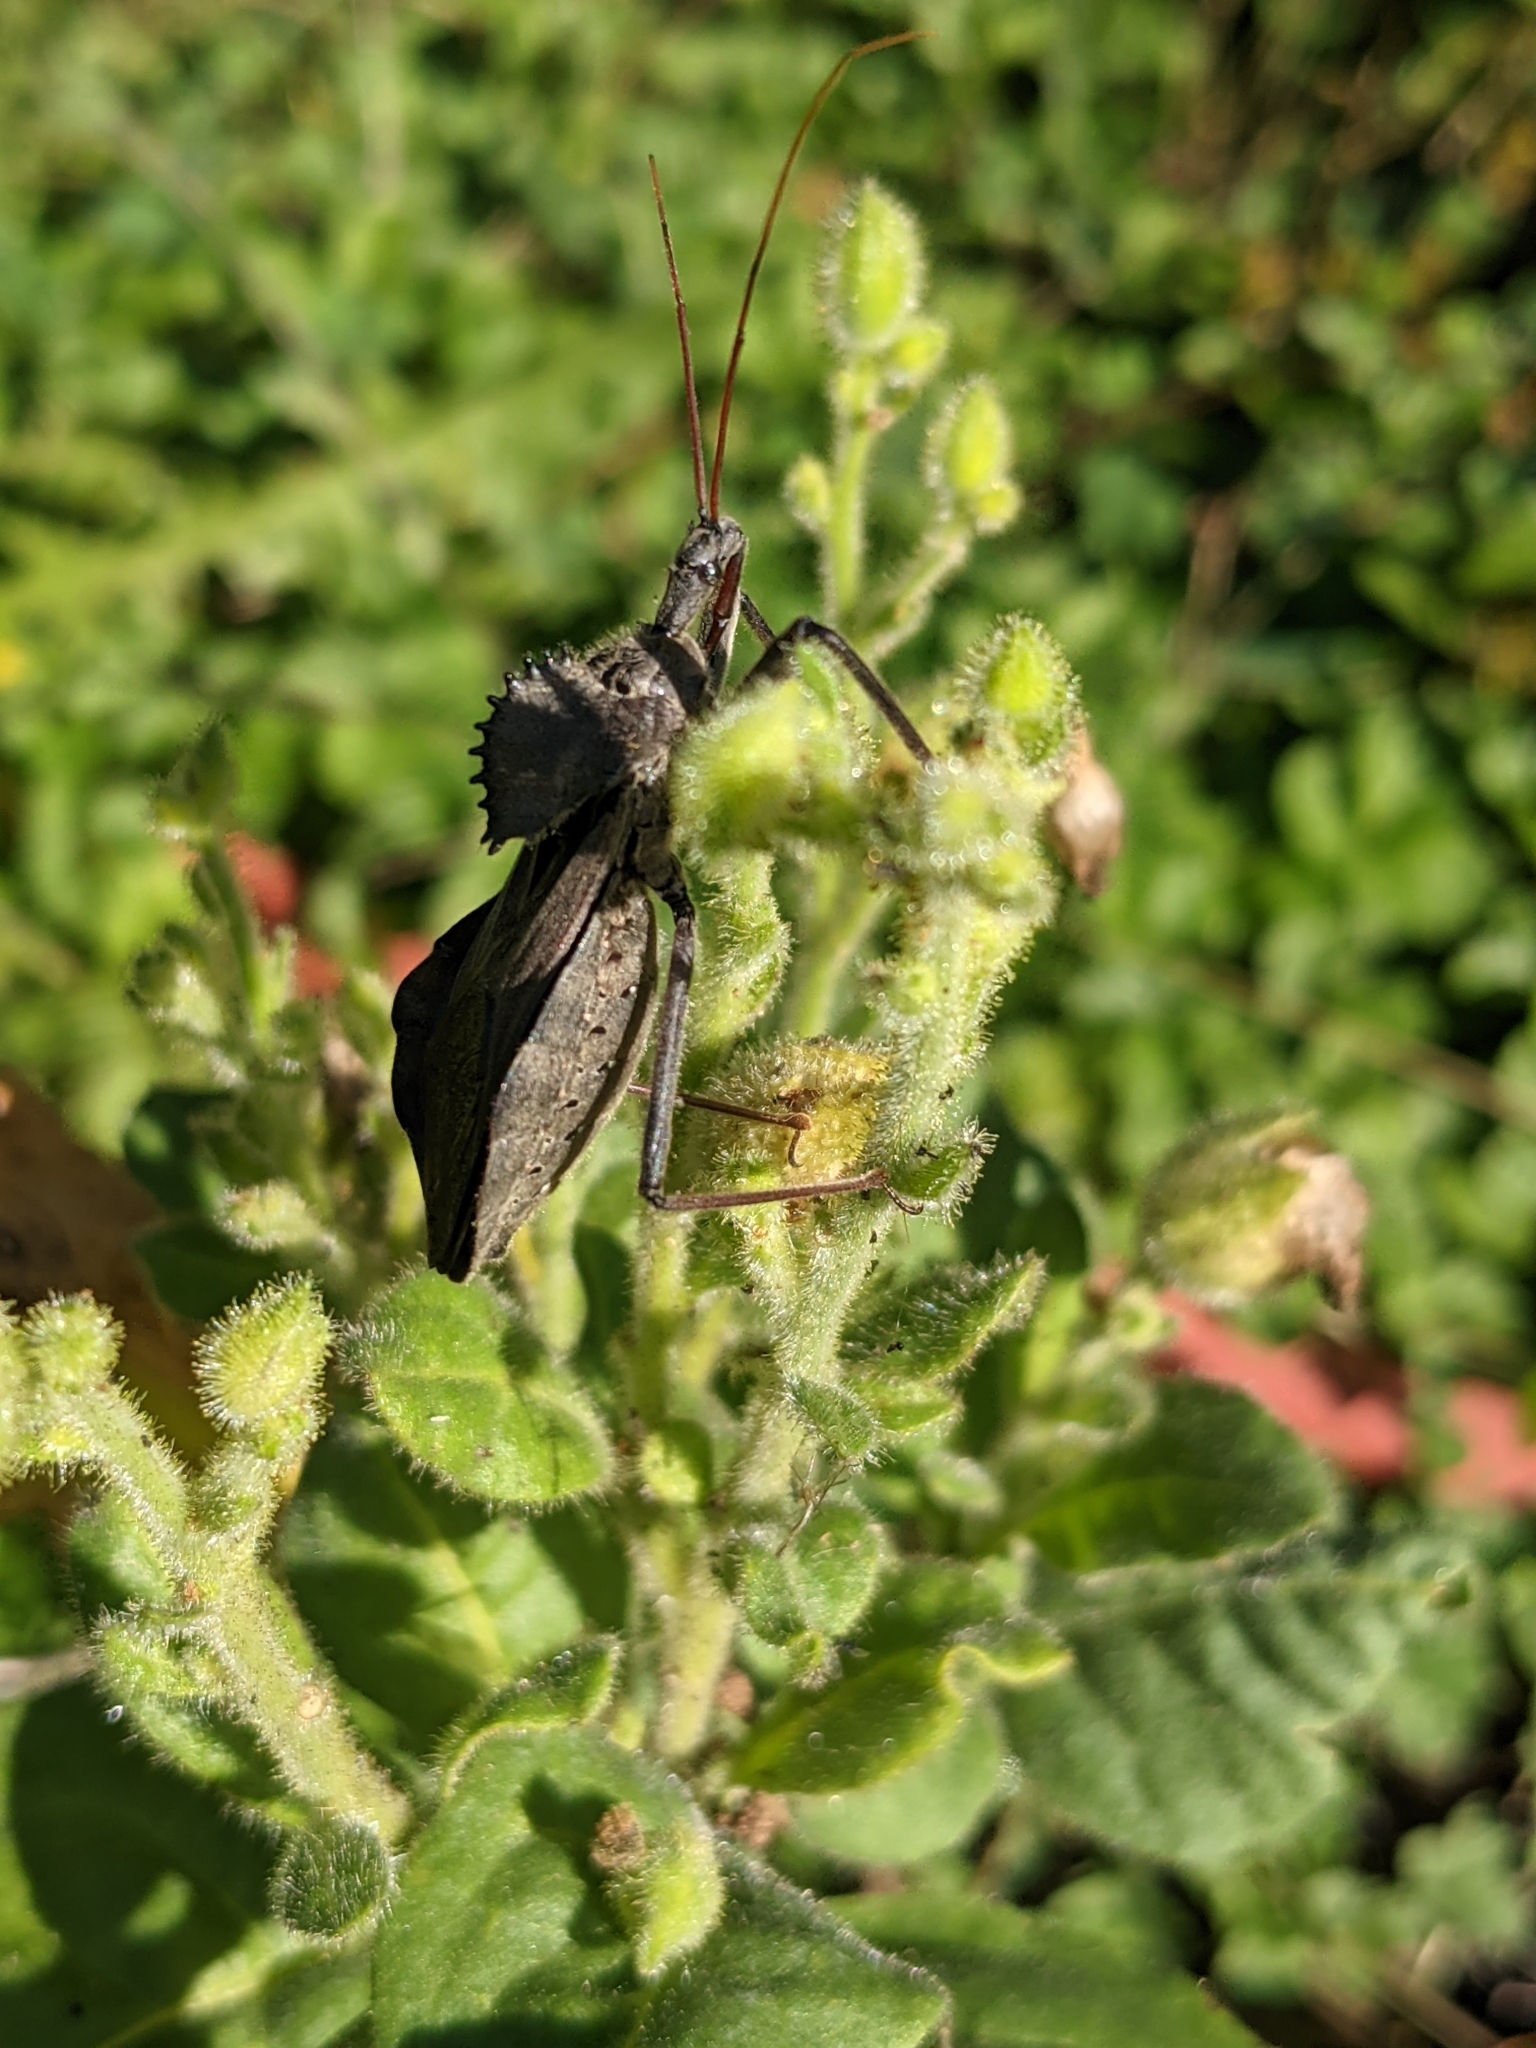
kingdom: Animalia
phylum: Arthropoda
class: Insecta
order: Hemiptera
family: Reduviidae
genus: Arilus
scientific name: Arilus cristatus
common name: North american wheel bug
